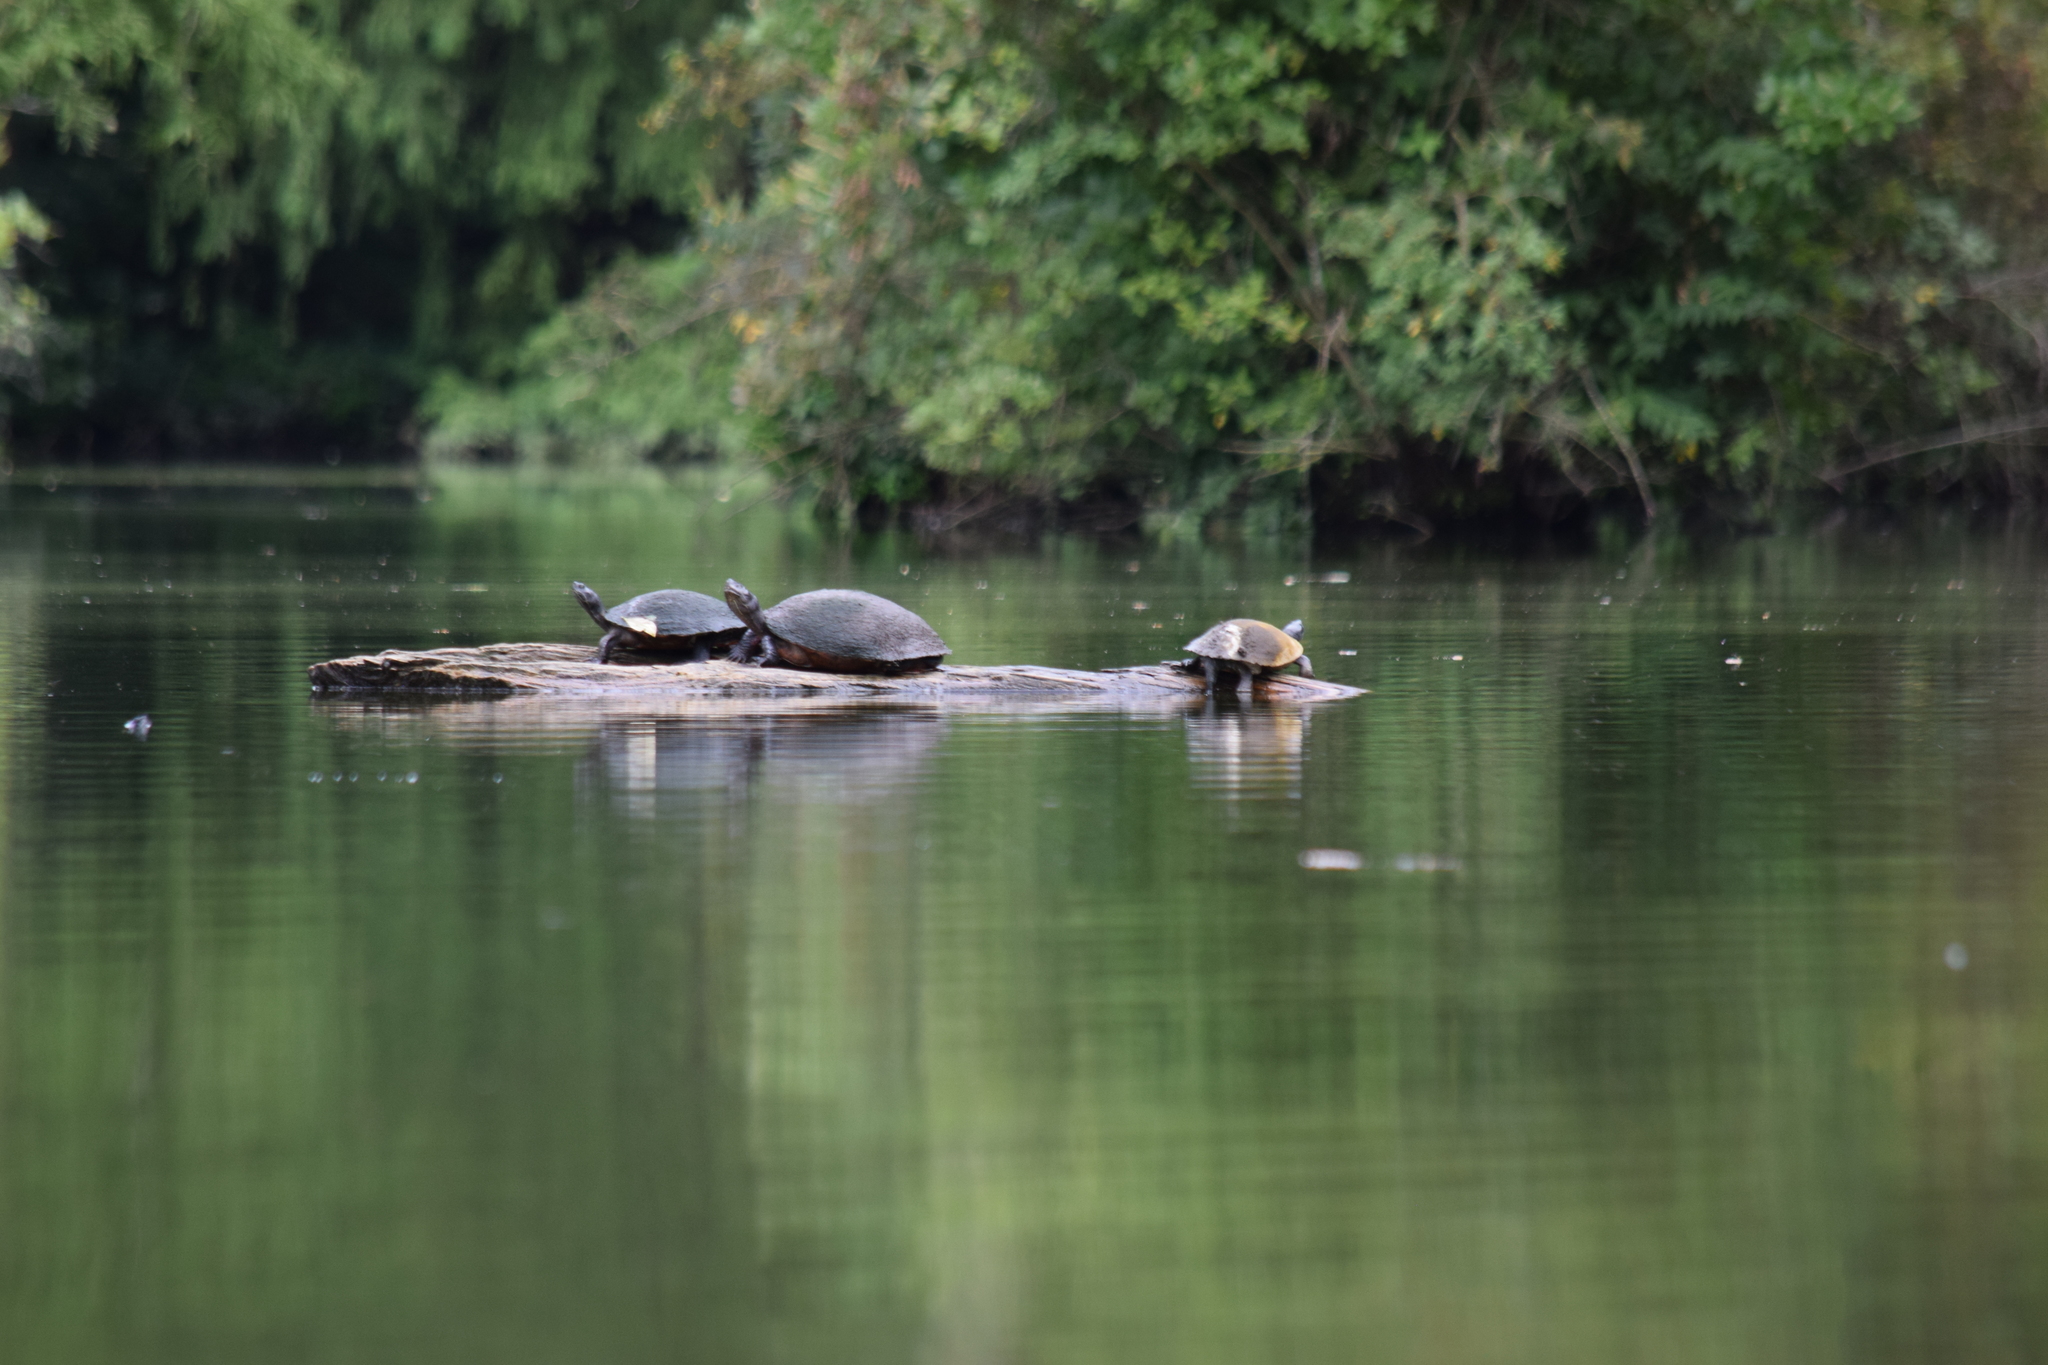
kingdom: Animalia
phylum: Chordata
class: Testudines
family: Emydidae
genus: Pseudemys
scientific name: Pseudemys rubriventris
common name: American red-bellied turtle
